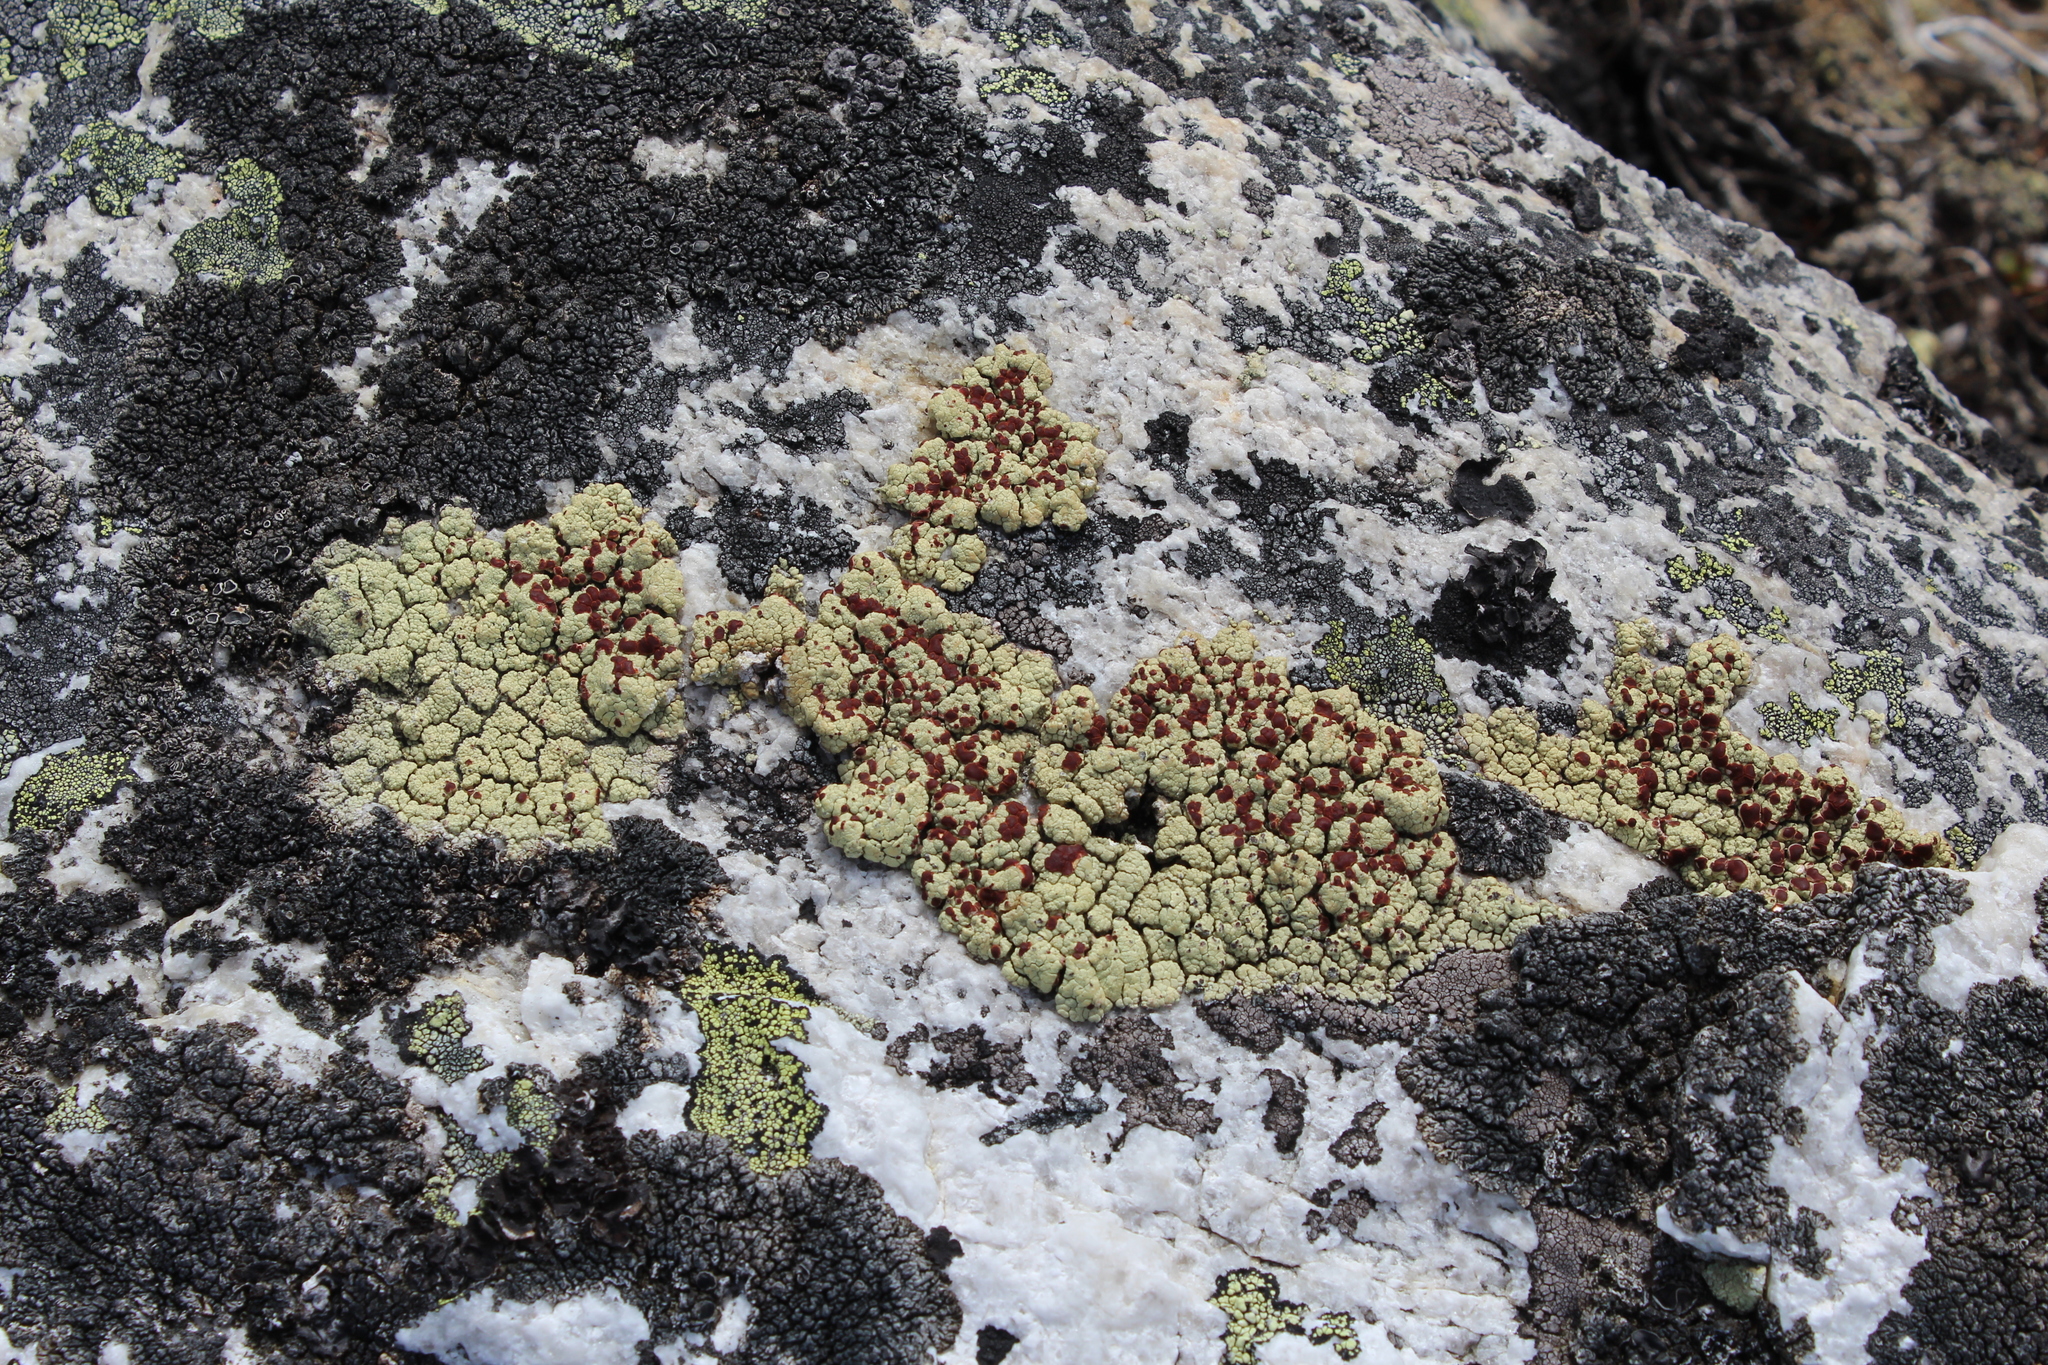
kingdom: Fungi
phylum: Ascomycota
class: Lecanoromycetes
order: Umbilicariales
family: Ophioparmaceae
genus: Ophioparma
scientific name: Ophioparma lapponica
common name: Lapland bloodspot lichen
